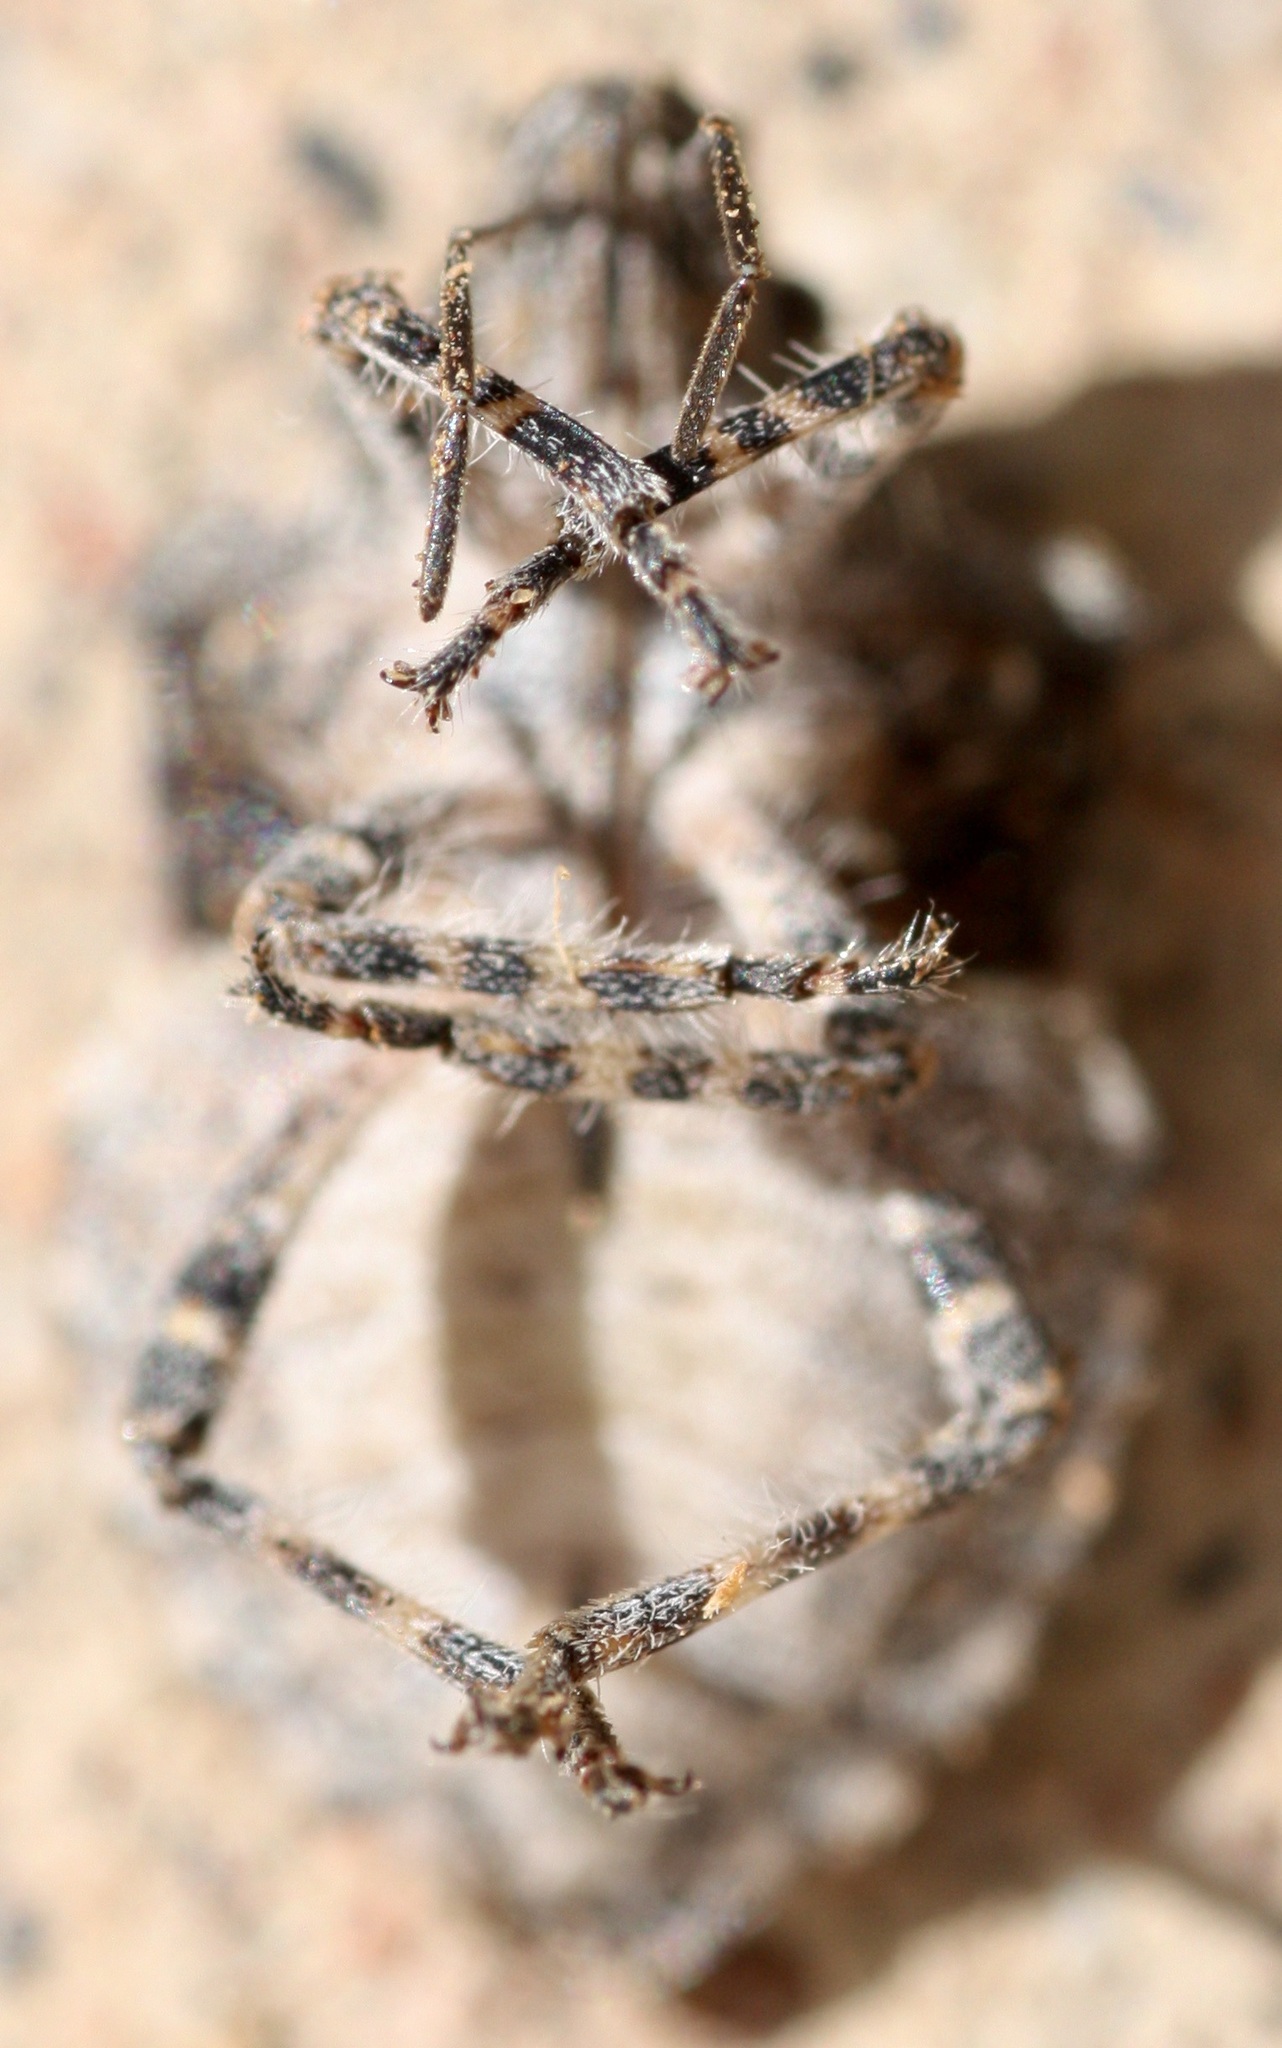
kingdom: Animalia
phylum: Arthropoda
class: Insecta
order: Hemiptera
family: Pentatomidae
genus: Brochymena
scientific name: Brochymena parva
